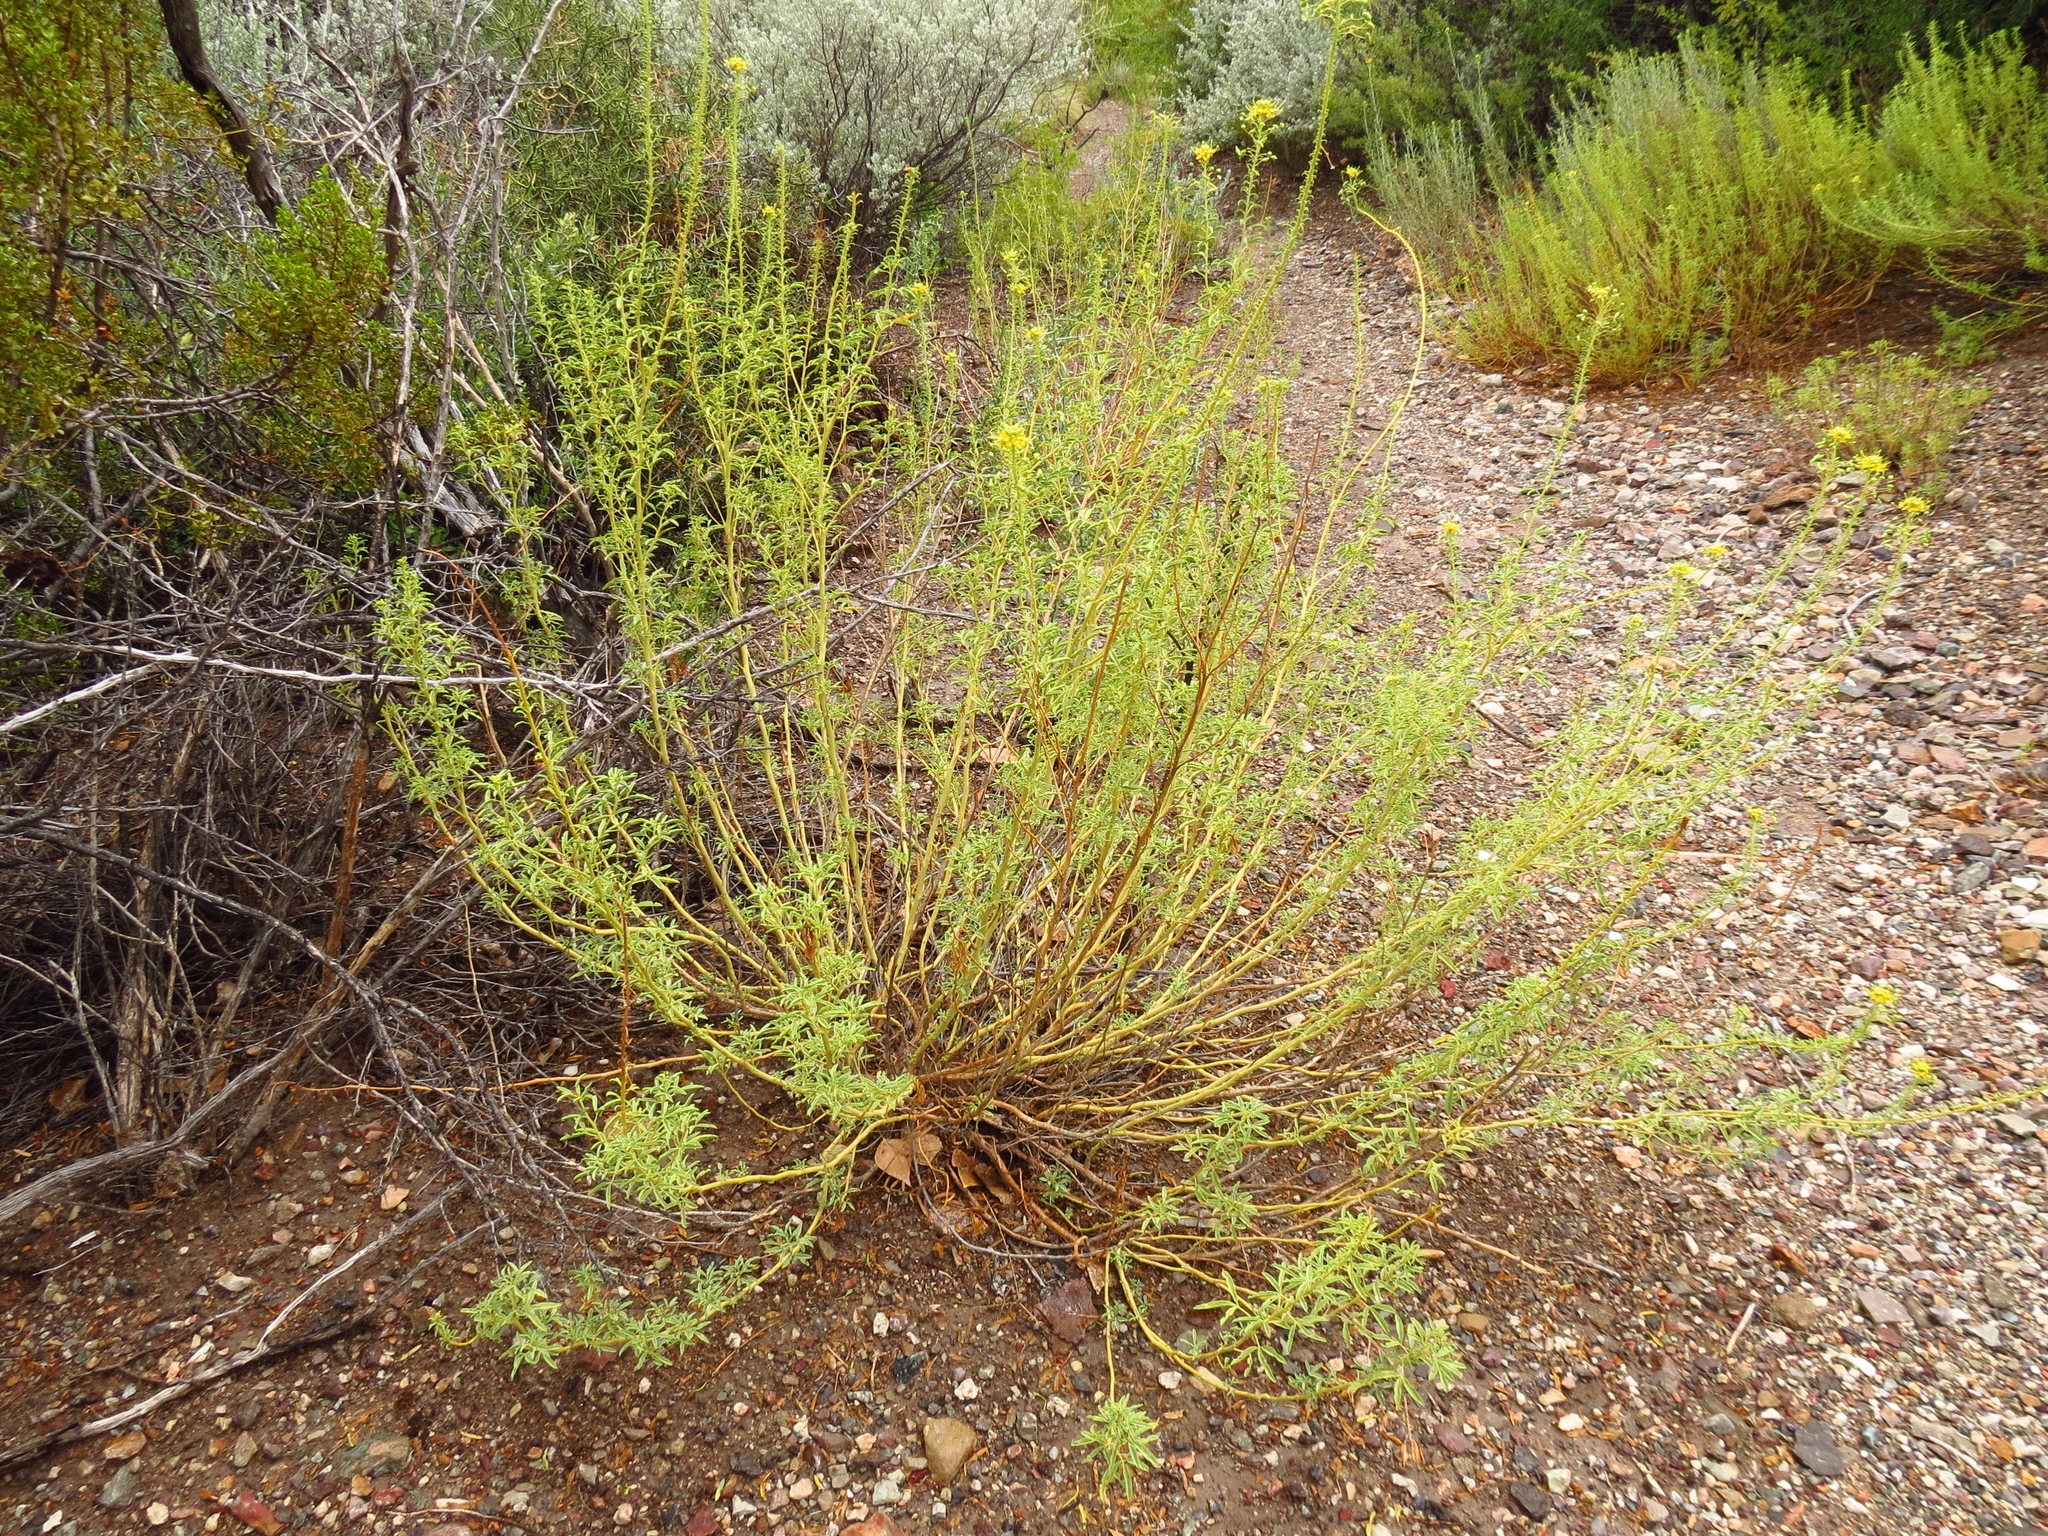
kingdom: Plantae
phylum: Tracheophyta
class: Magnoliopsida
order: Brassicales
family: Cleomaceae
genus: Cleomella
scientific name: Cleomella longipes
